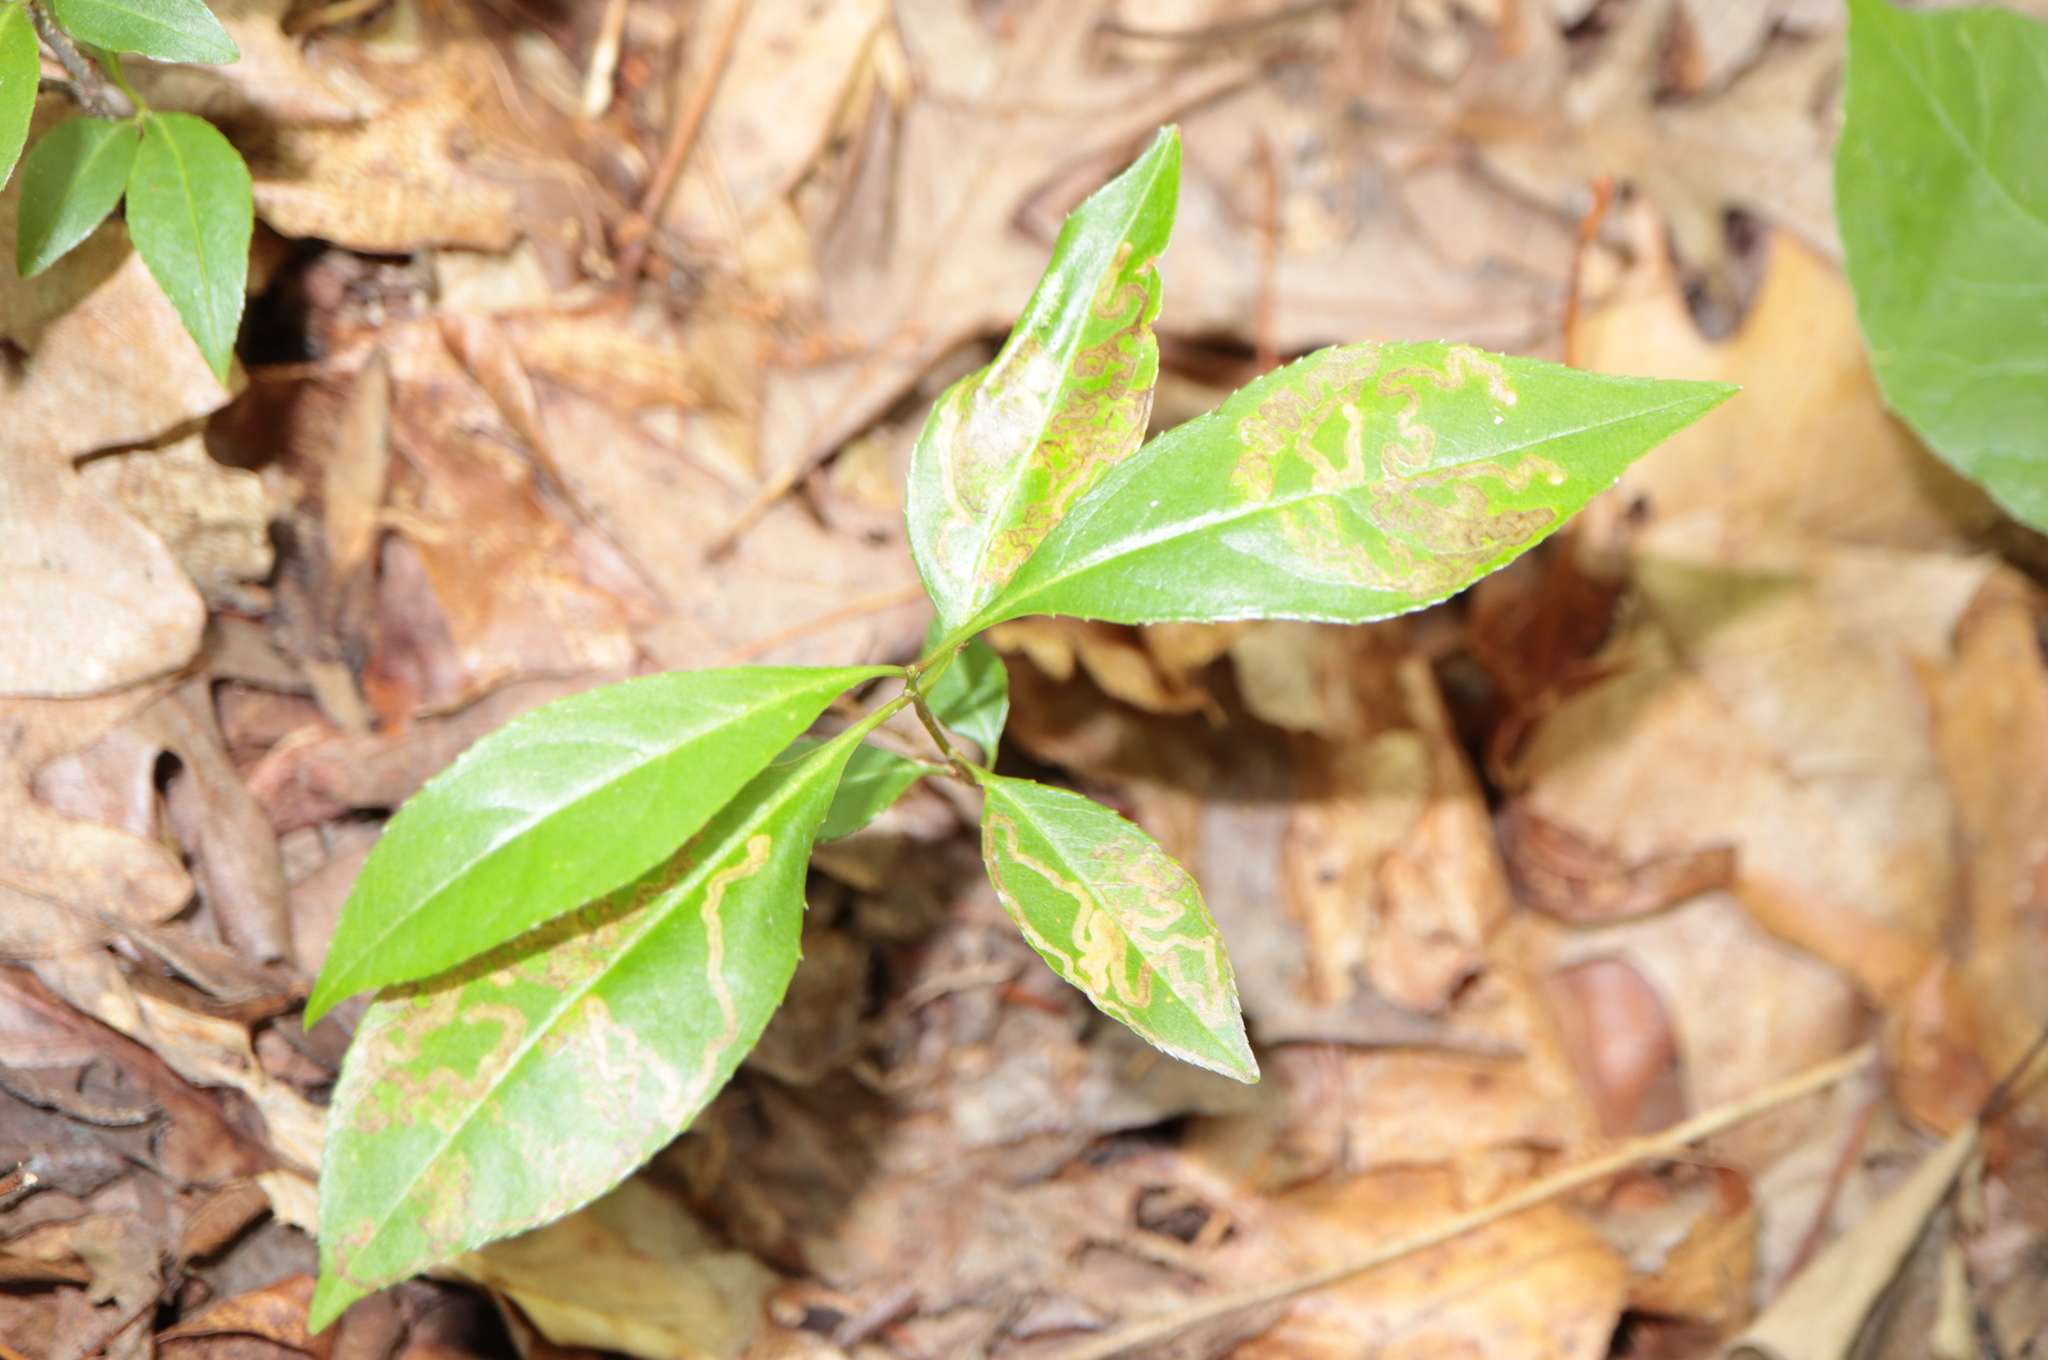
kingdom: Animalia
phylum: Arthropoda
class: Insecta
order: Lepidoptera
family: Nepticulidae
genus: Stigmella
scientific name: Stigmella prunifoliella
